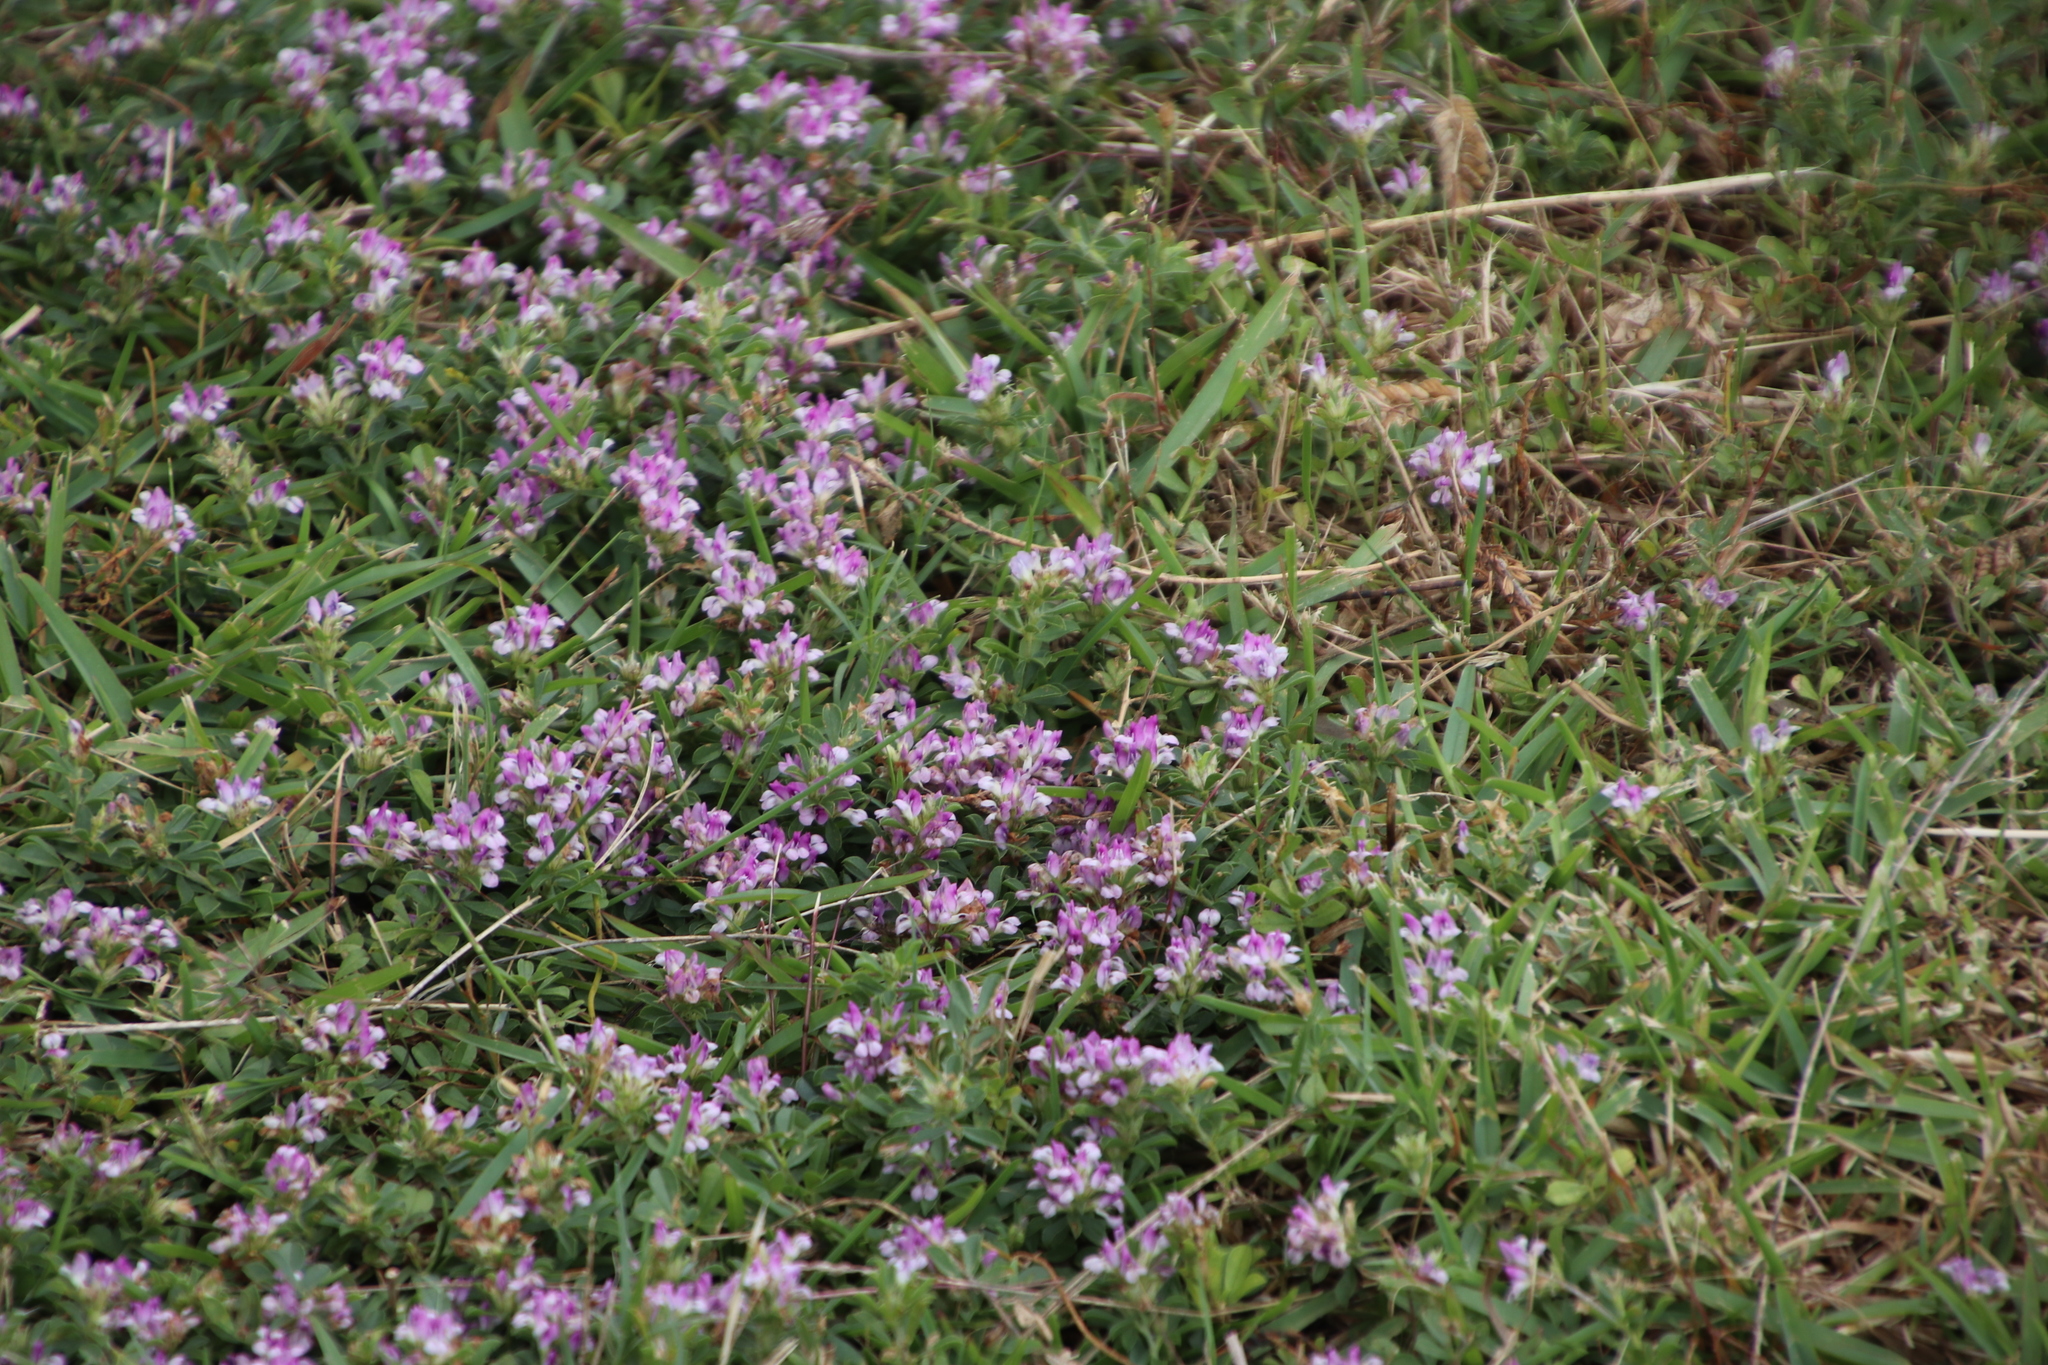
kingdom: Plantae
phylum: Tracheophyta
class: Magnoliopsida
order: Fabales
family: Fabaceae
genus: Psoralea
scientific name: Psoralea
